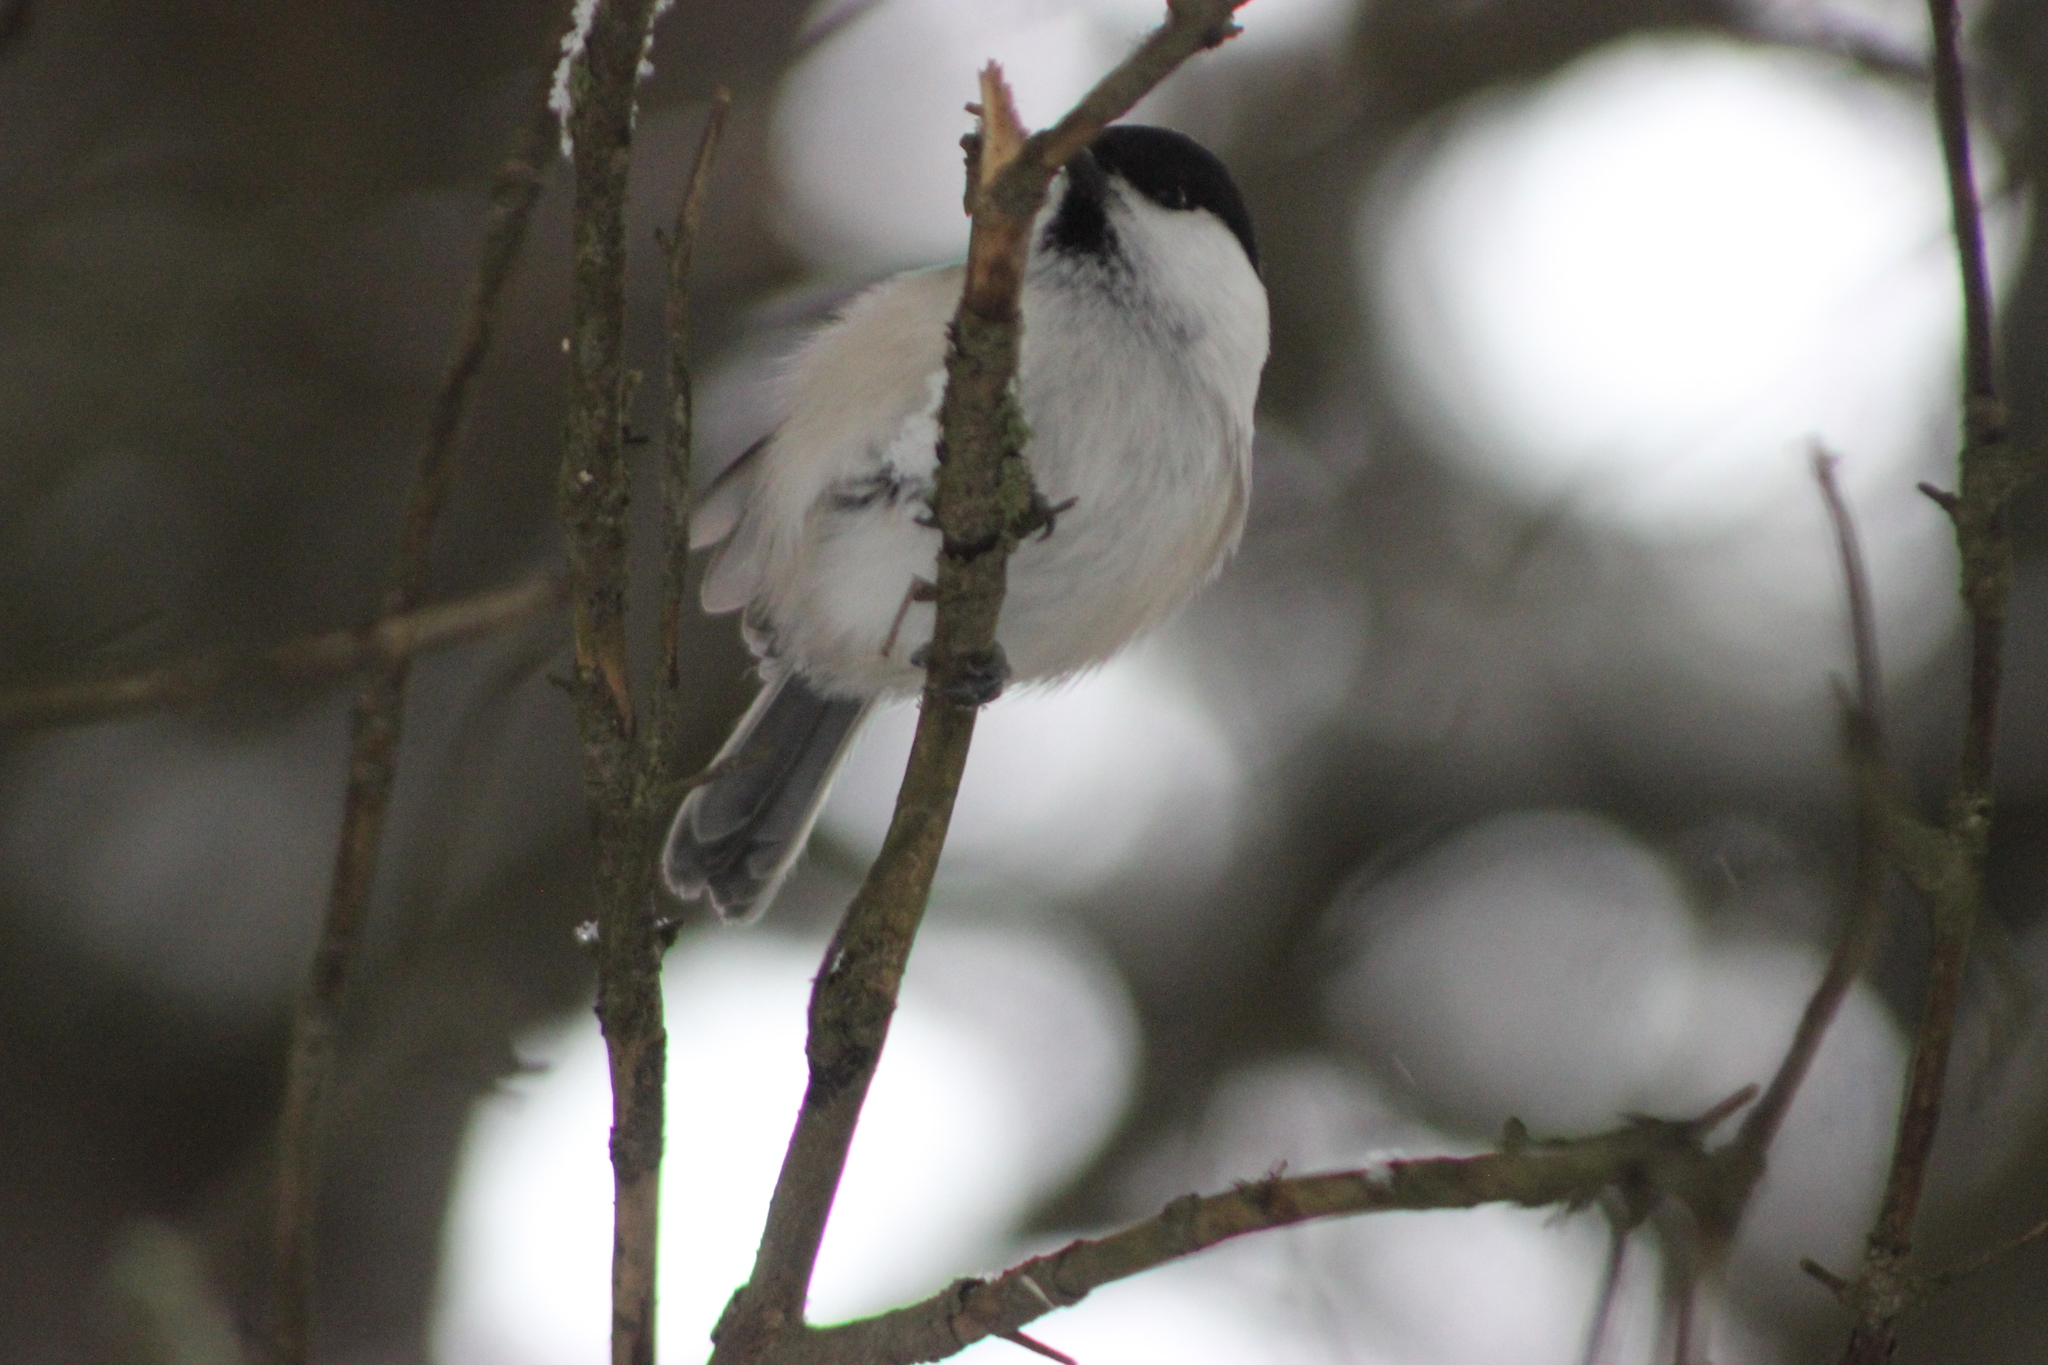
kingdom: Animalia
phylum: Chordata
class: Aves
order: Passeriformes
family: Paridae
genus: Poecile
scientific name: Poecile montanus
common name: Willow tit
